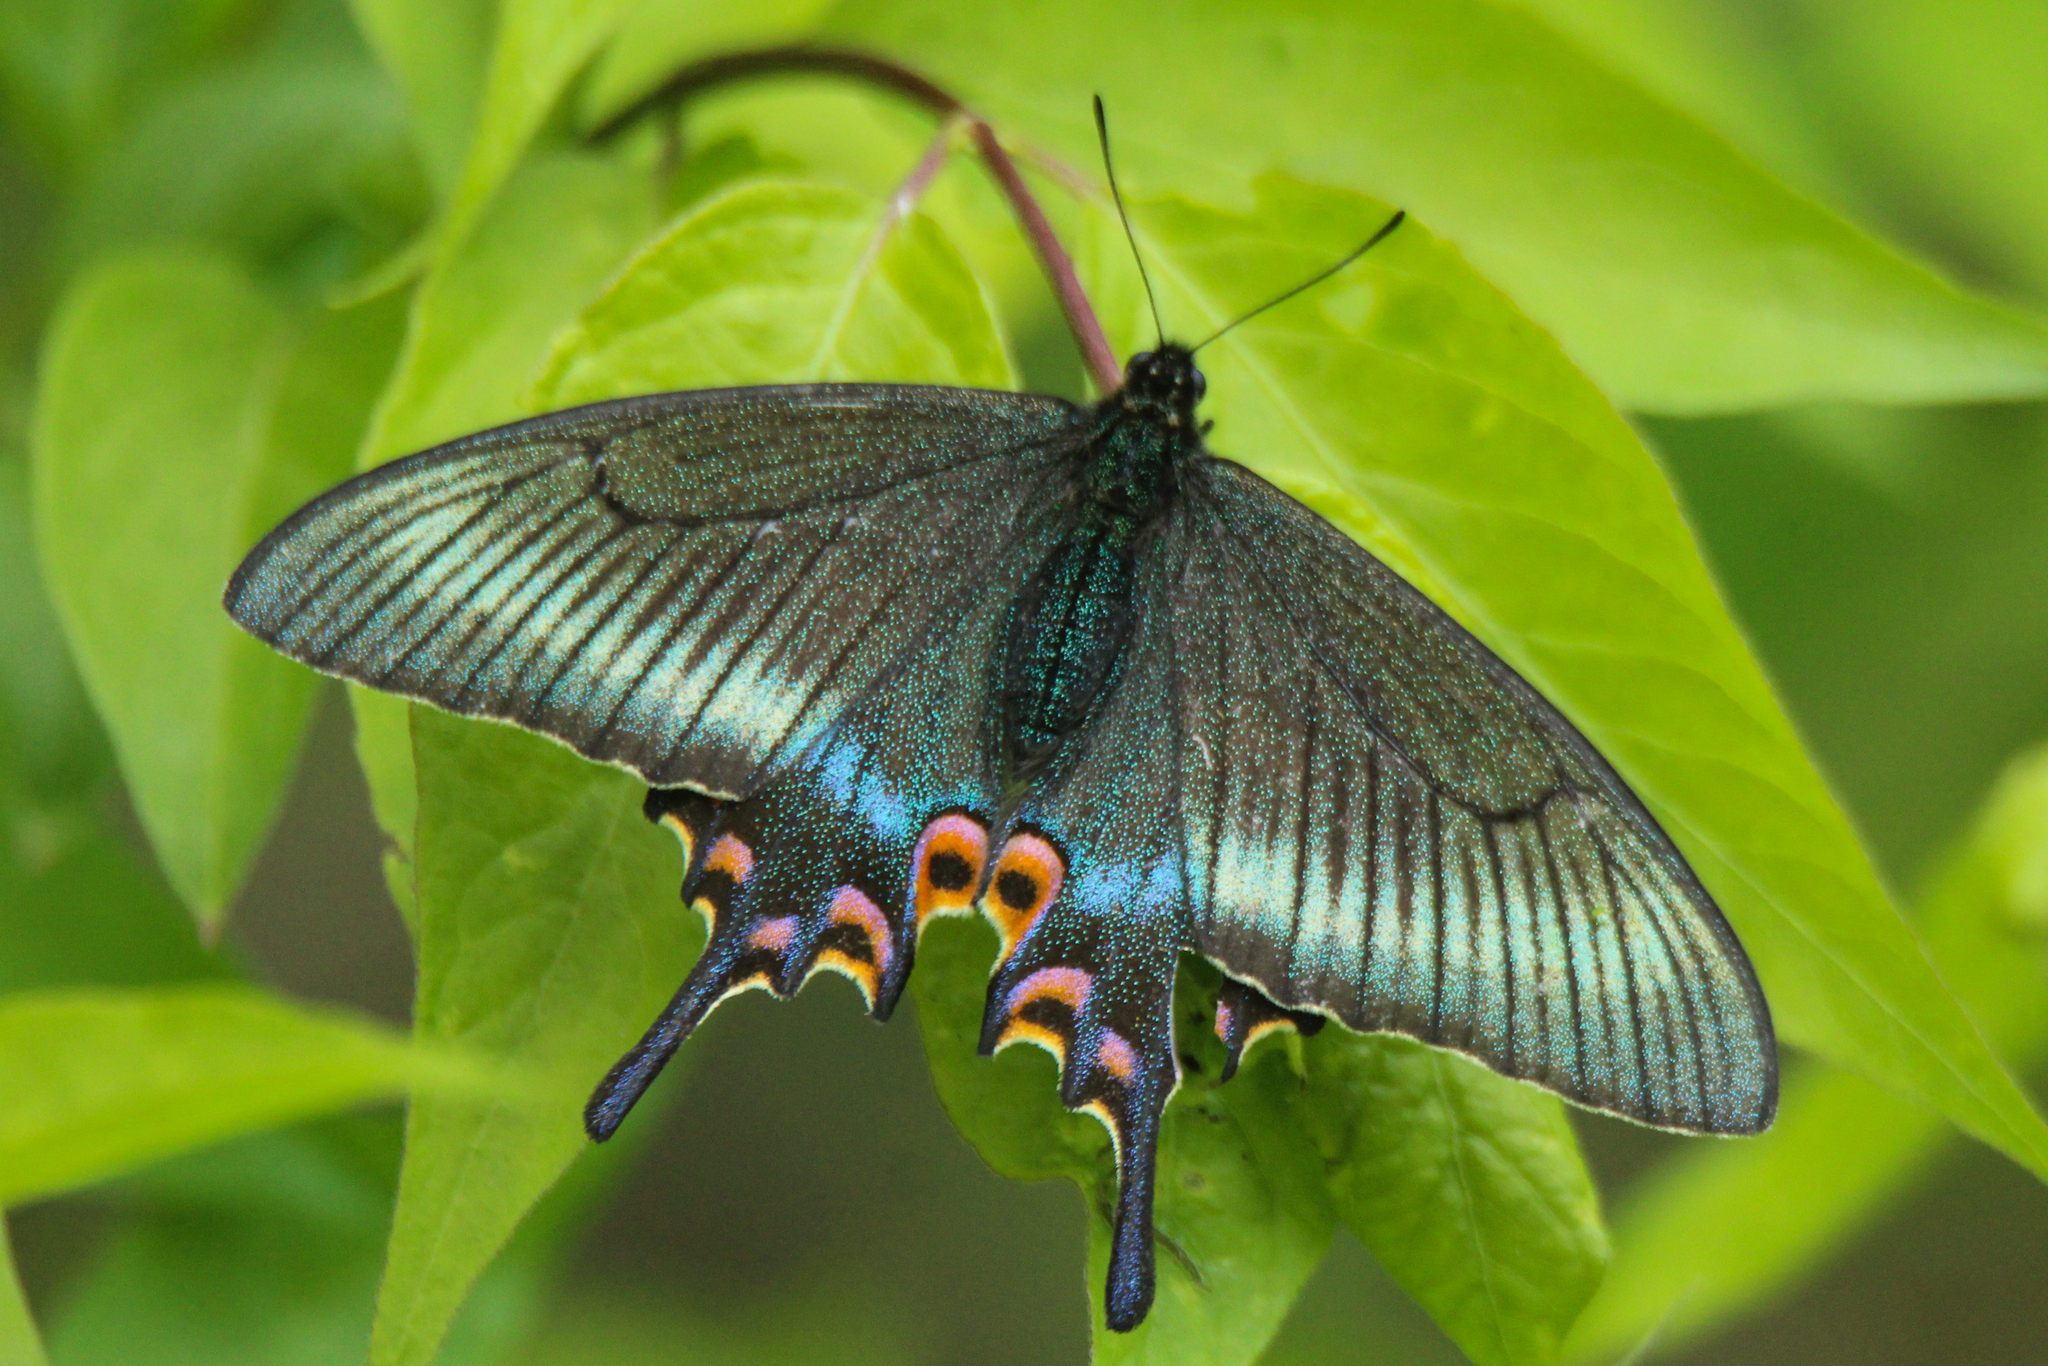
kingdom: Animalia
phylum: Arthropoda
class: Insecta
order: Lepidoptera
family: Papilionidae
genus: Papilio
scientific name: Papilio maackii
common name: Alpine black swallowtail
